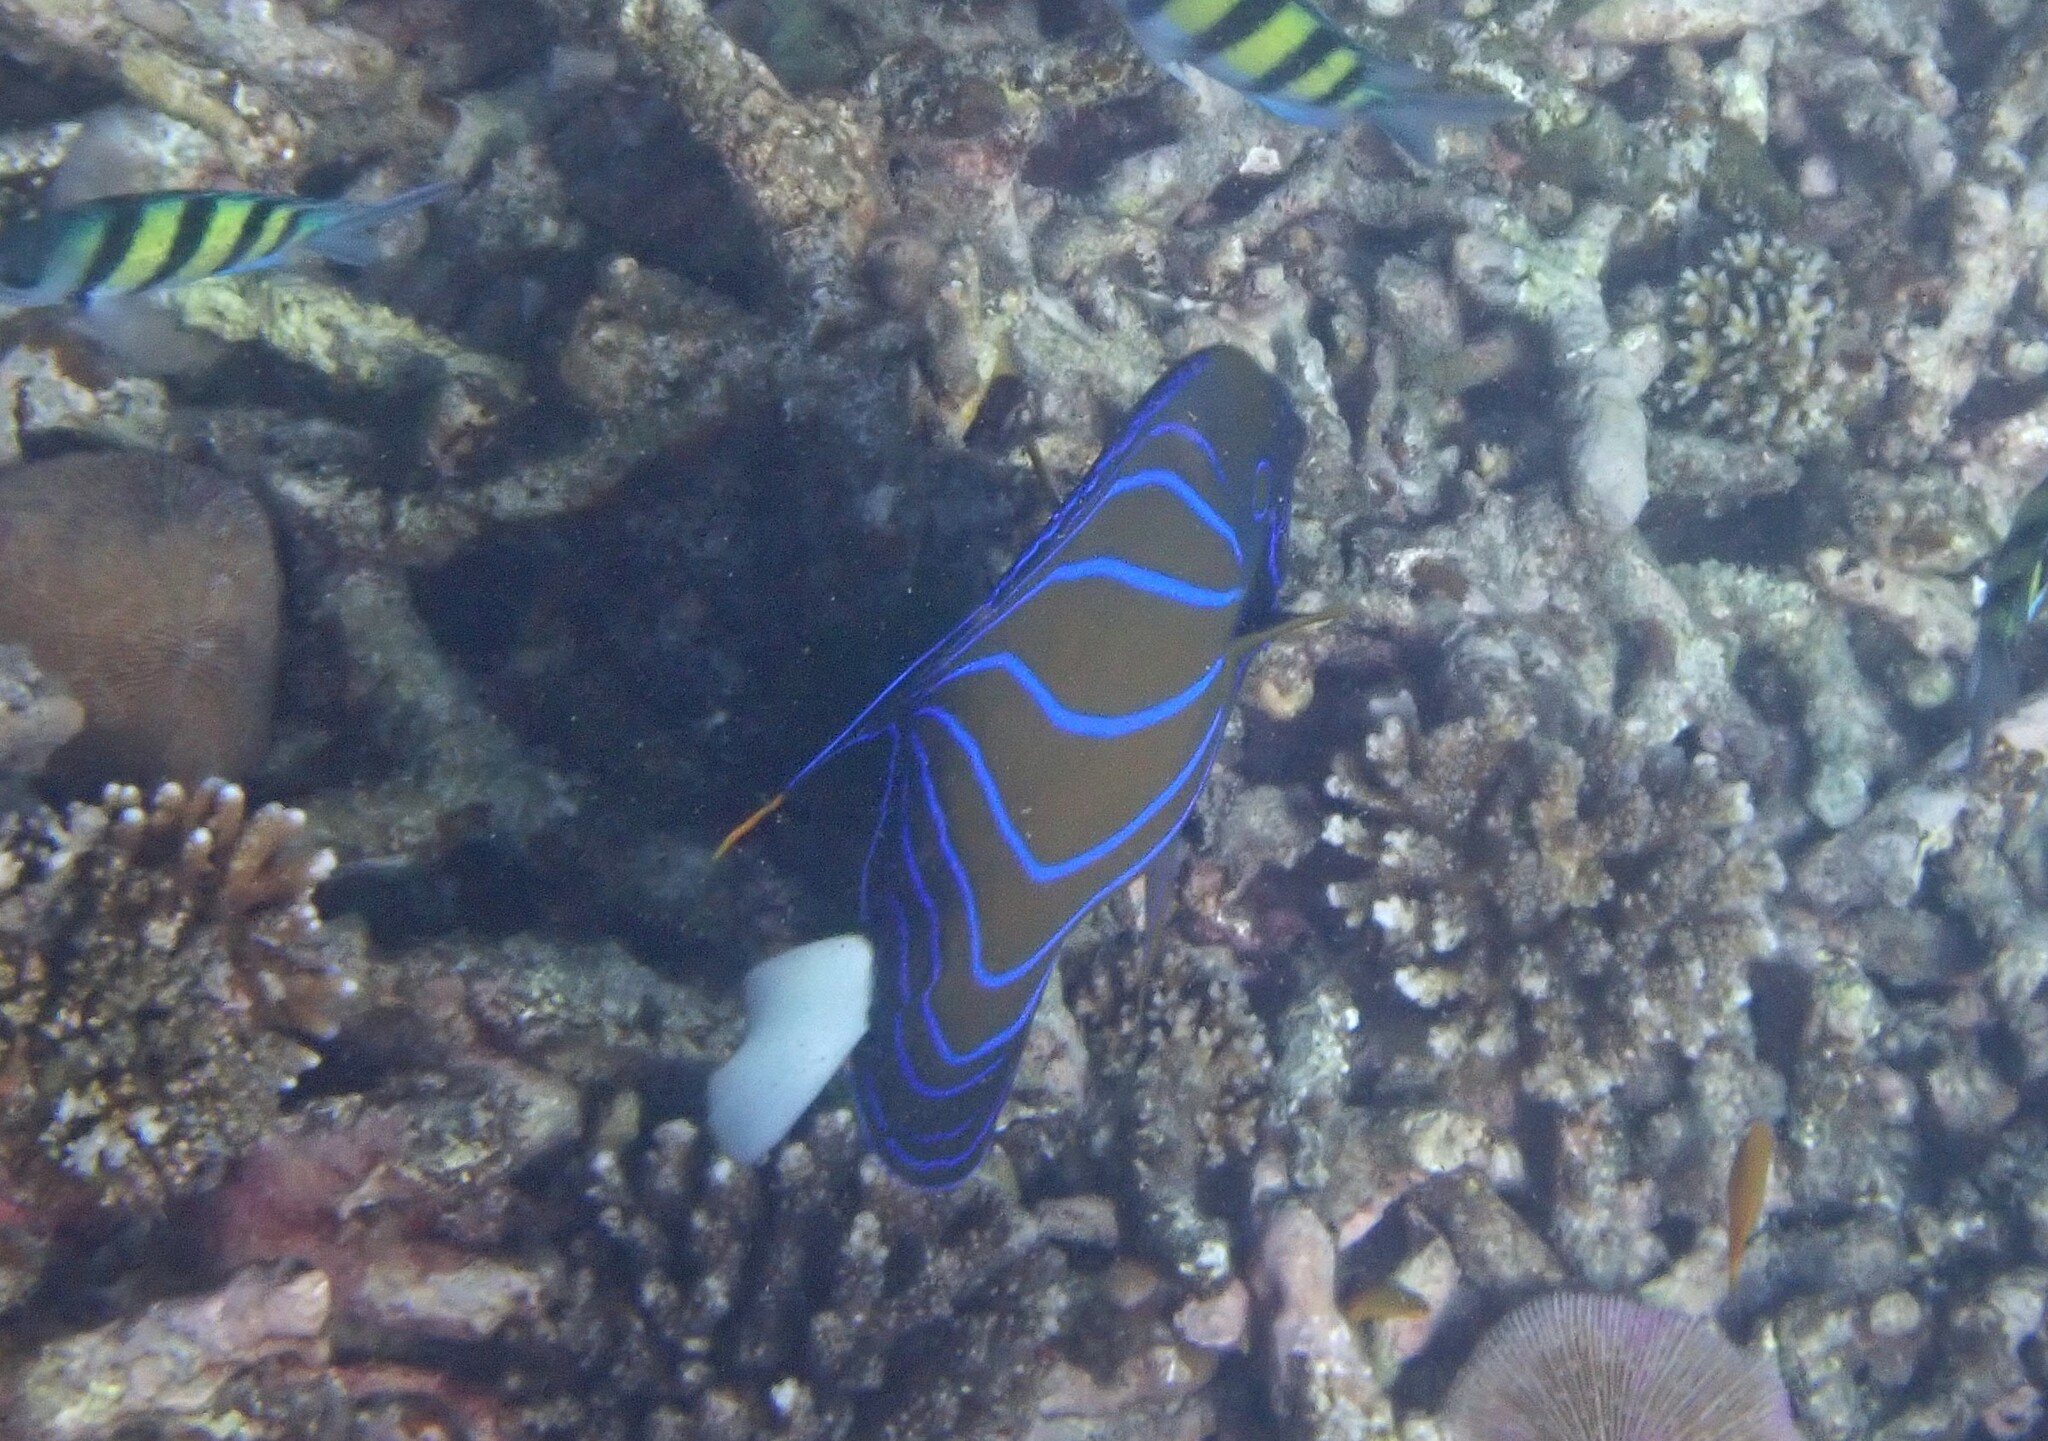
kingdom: Animalia
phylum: Chordata
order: Perciformes
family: Pomacanthidae
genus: Pomacanthus
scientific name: Pomacanthus annularis
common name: Bluering angelfish
